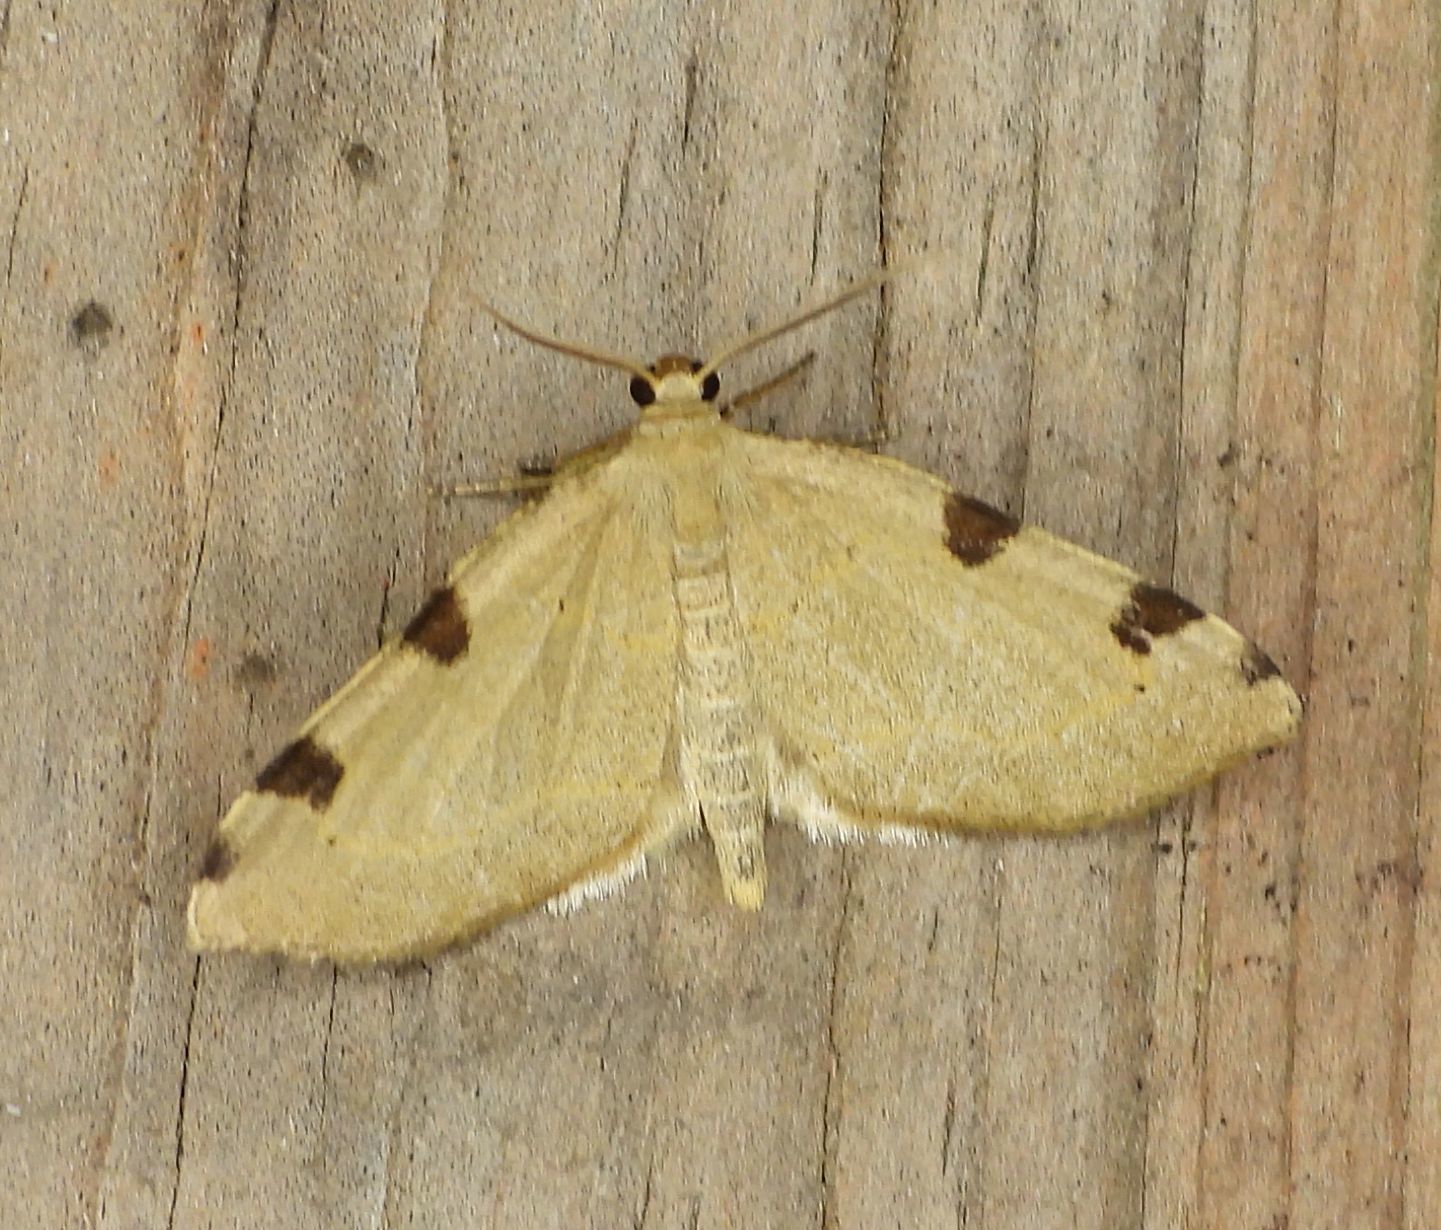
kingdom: Animalia
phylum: Arthropoda
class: Insecta
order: Lepidoptera
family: Geometridae
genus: Heterophleps
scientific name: Heterophleps triguttaria
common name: Three-spotted fillip
